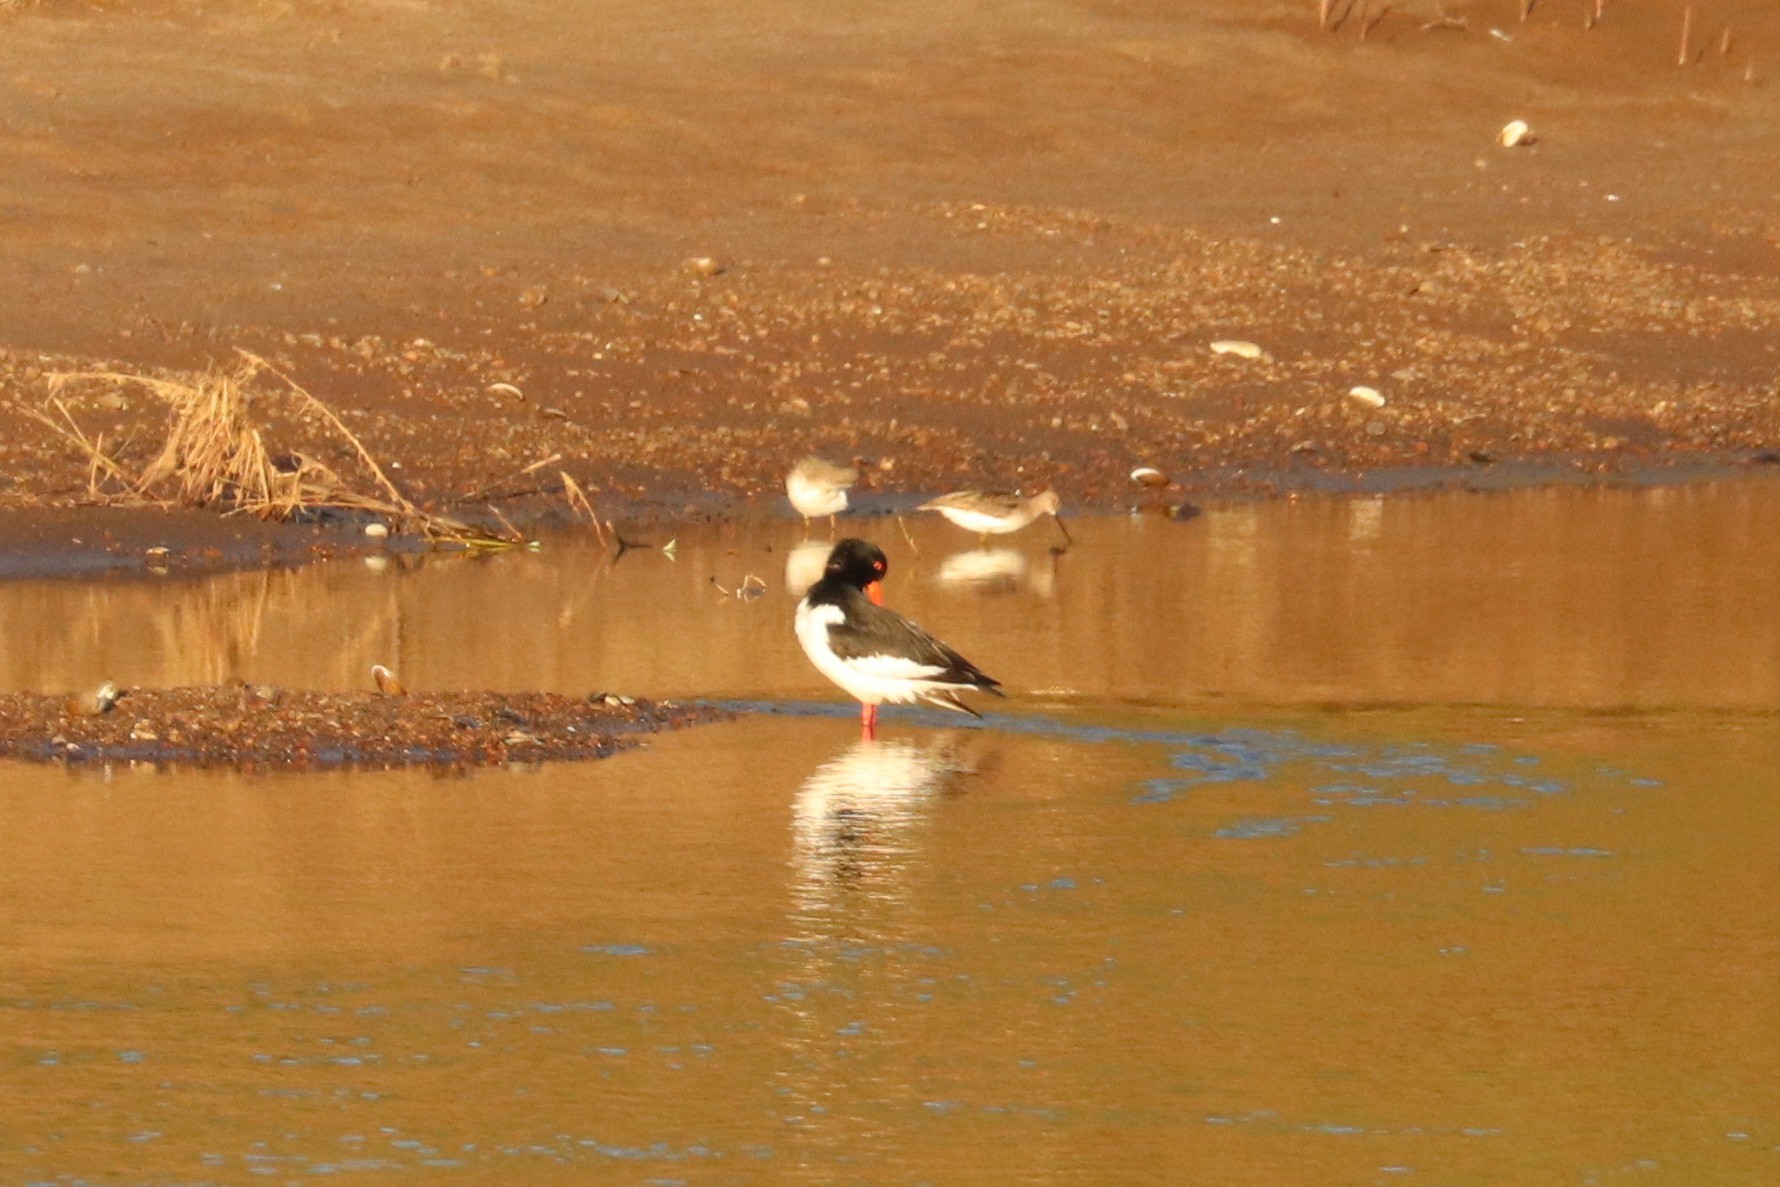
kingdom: Animalia
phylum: Chordata
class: Aves
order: Charadriiformes
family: Haematopodidae
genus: Haematopus
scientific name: Haematopus ostralegus
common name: Eurasian oystercatcher
